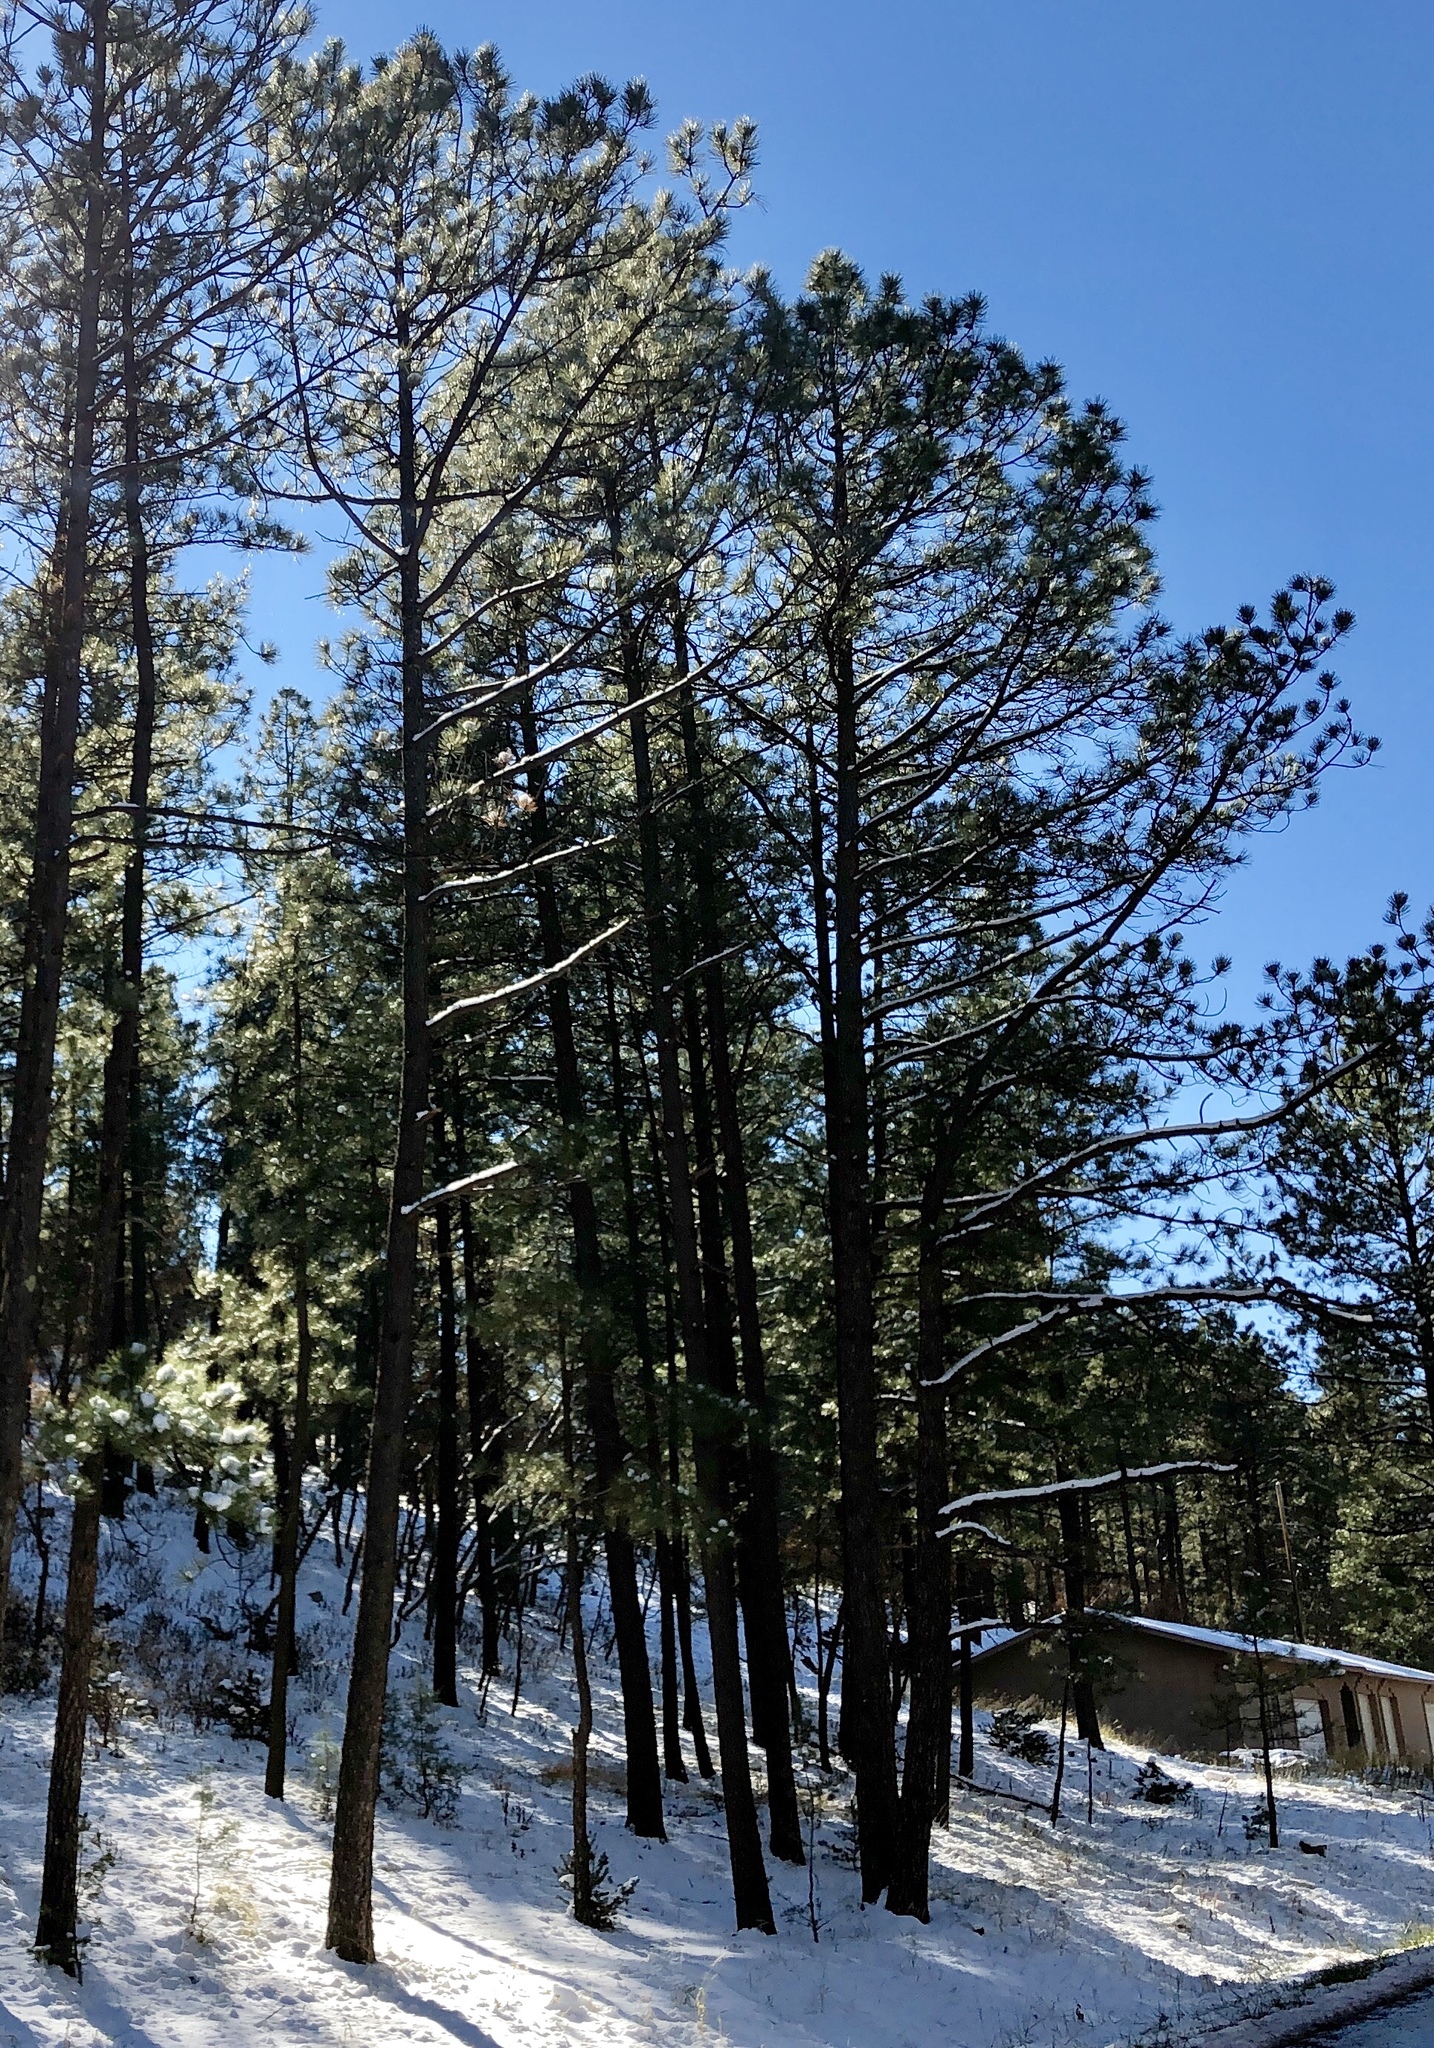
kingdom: Plantae
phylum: Tracheophyta
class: Pinopsida
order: Pinales
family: Pinaceae
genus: Pinus
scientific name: Pinus ponderosa
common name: Western yellow-pine
